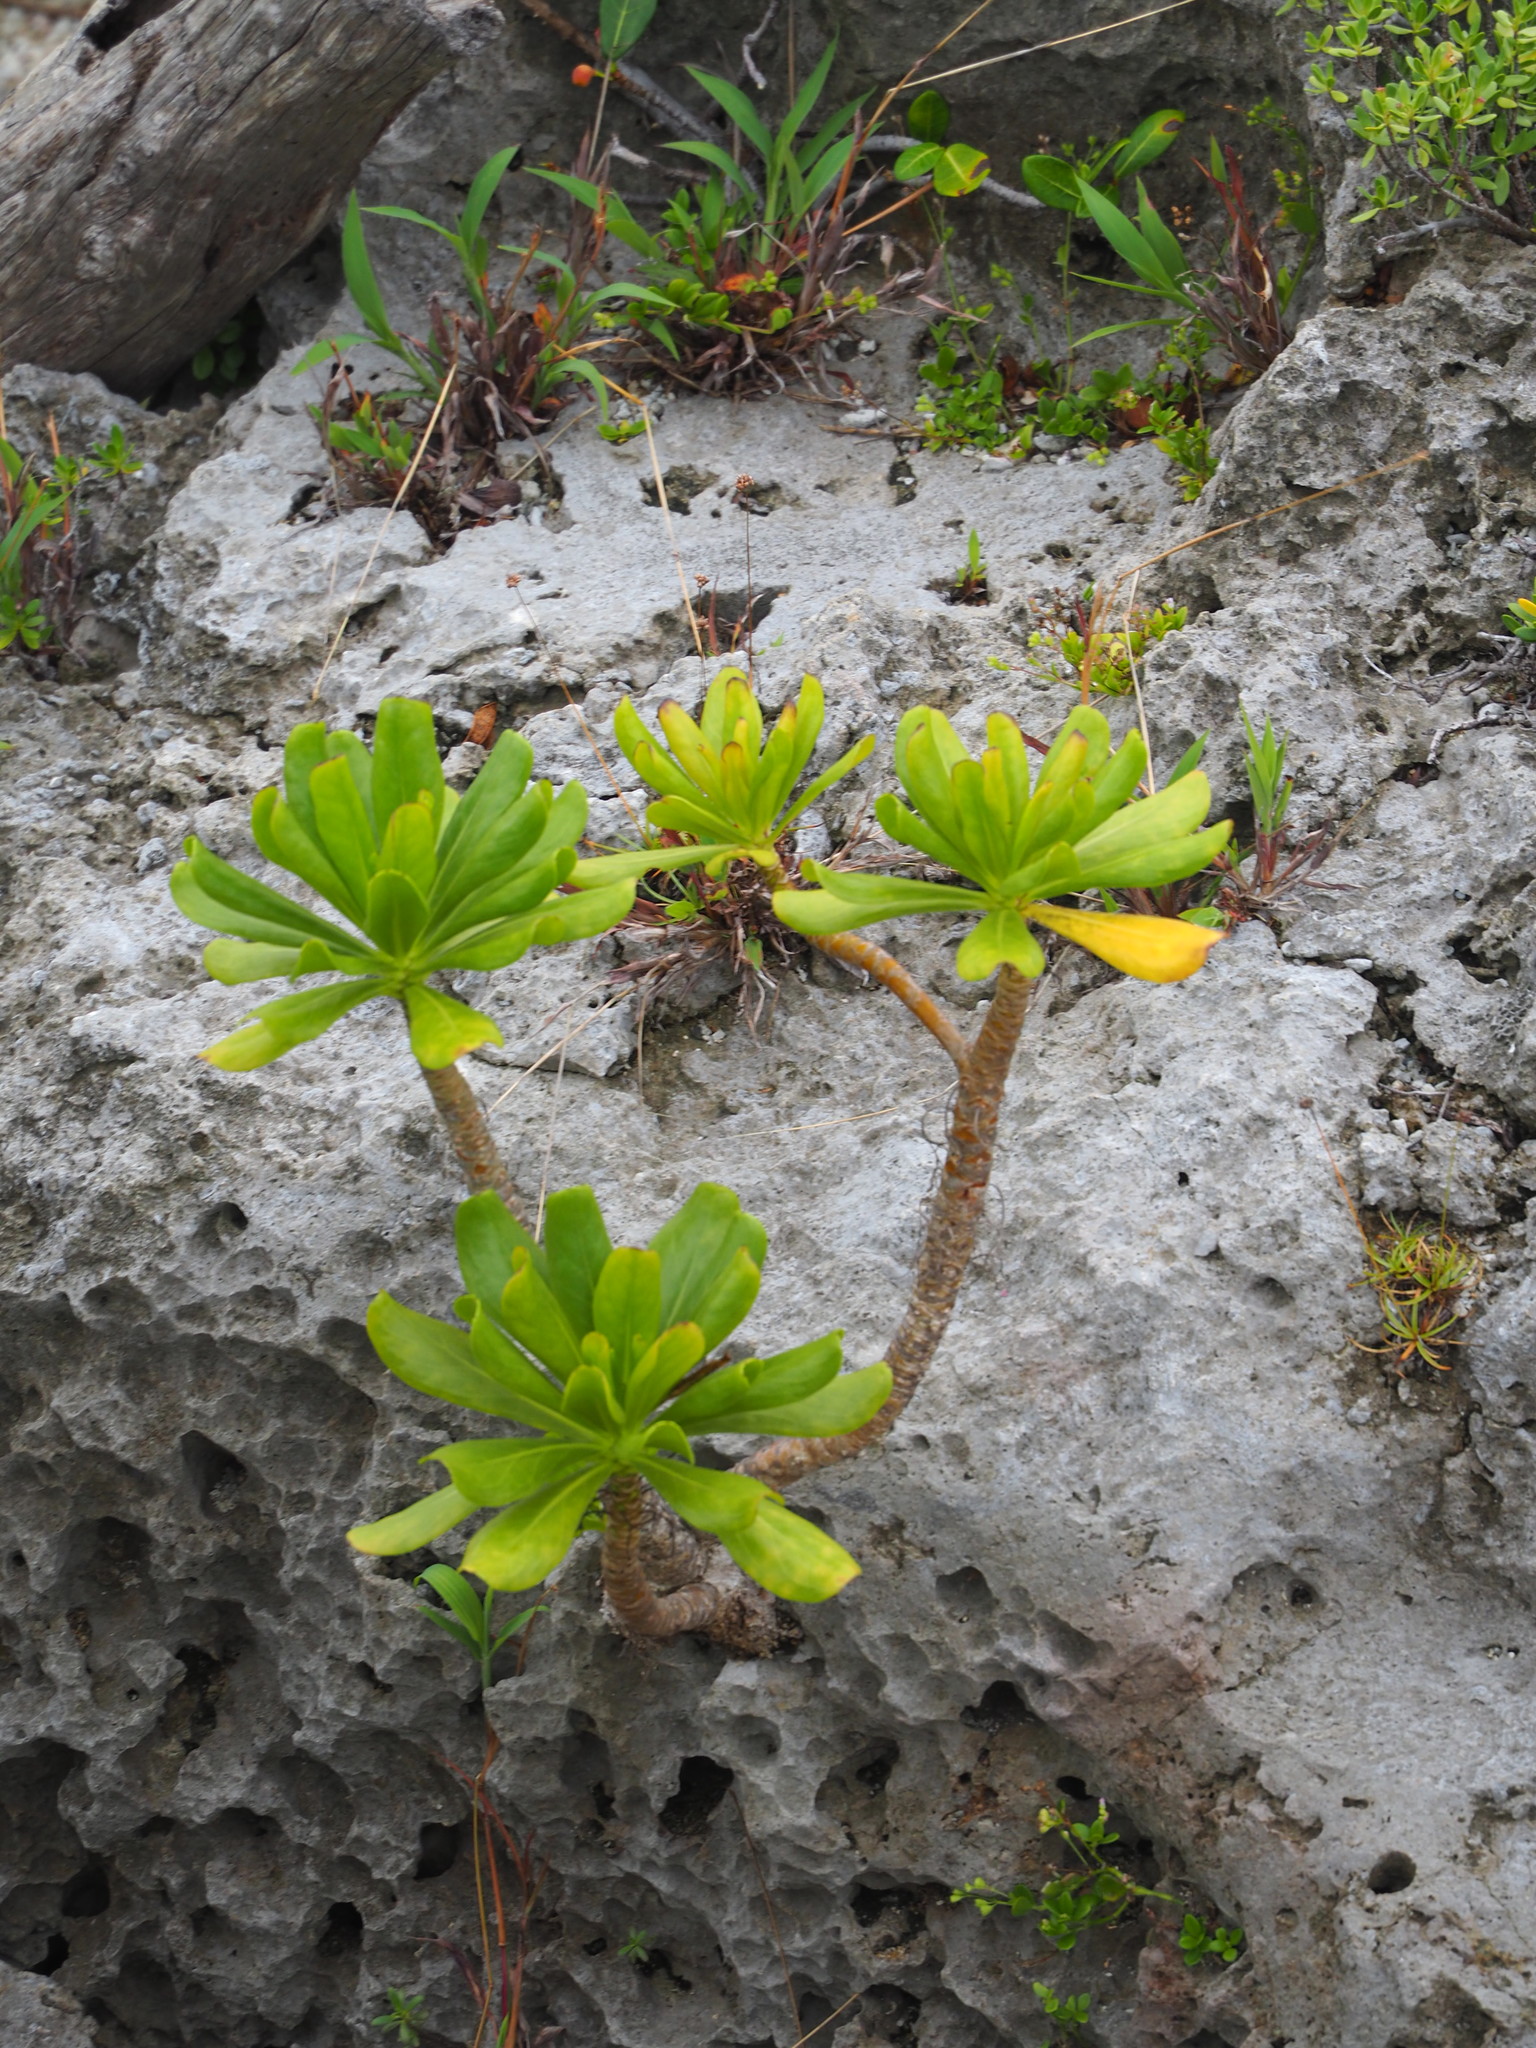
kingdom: Plantae
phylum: Tracheophyta
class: Magnoliopsida
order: Asterales
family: Goodeniaceae
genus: Scaevola
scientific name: Scaevola taccada
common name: Sea lettucetree
